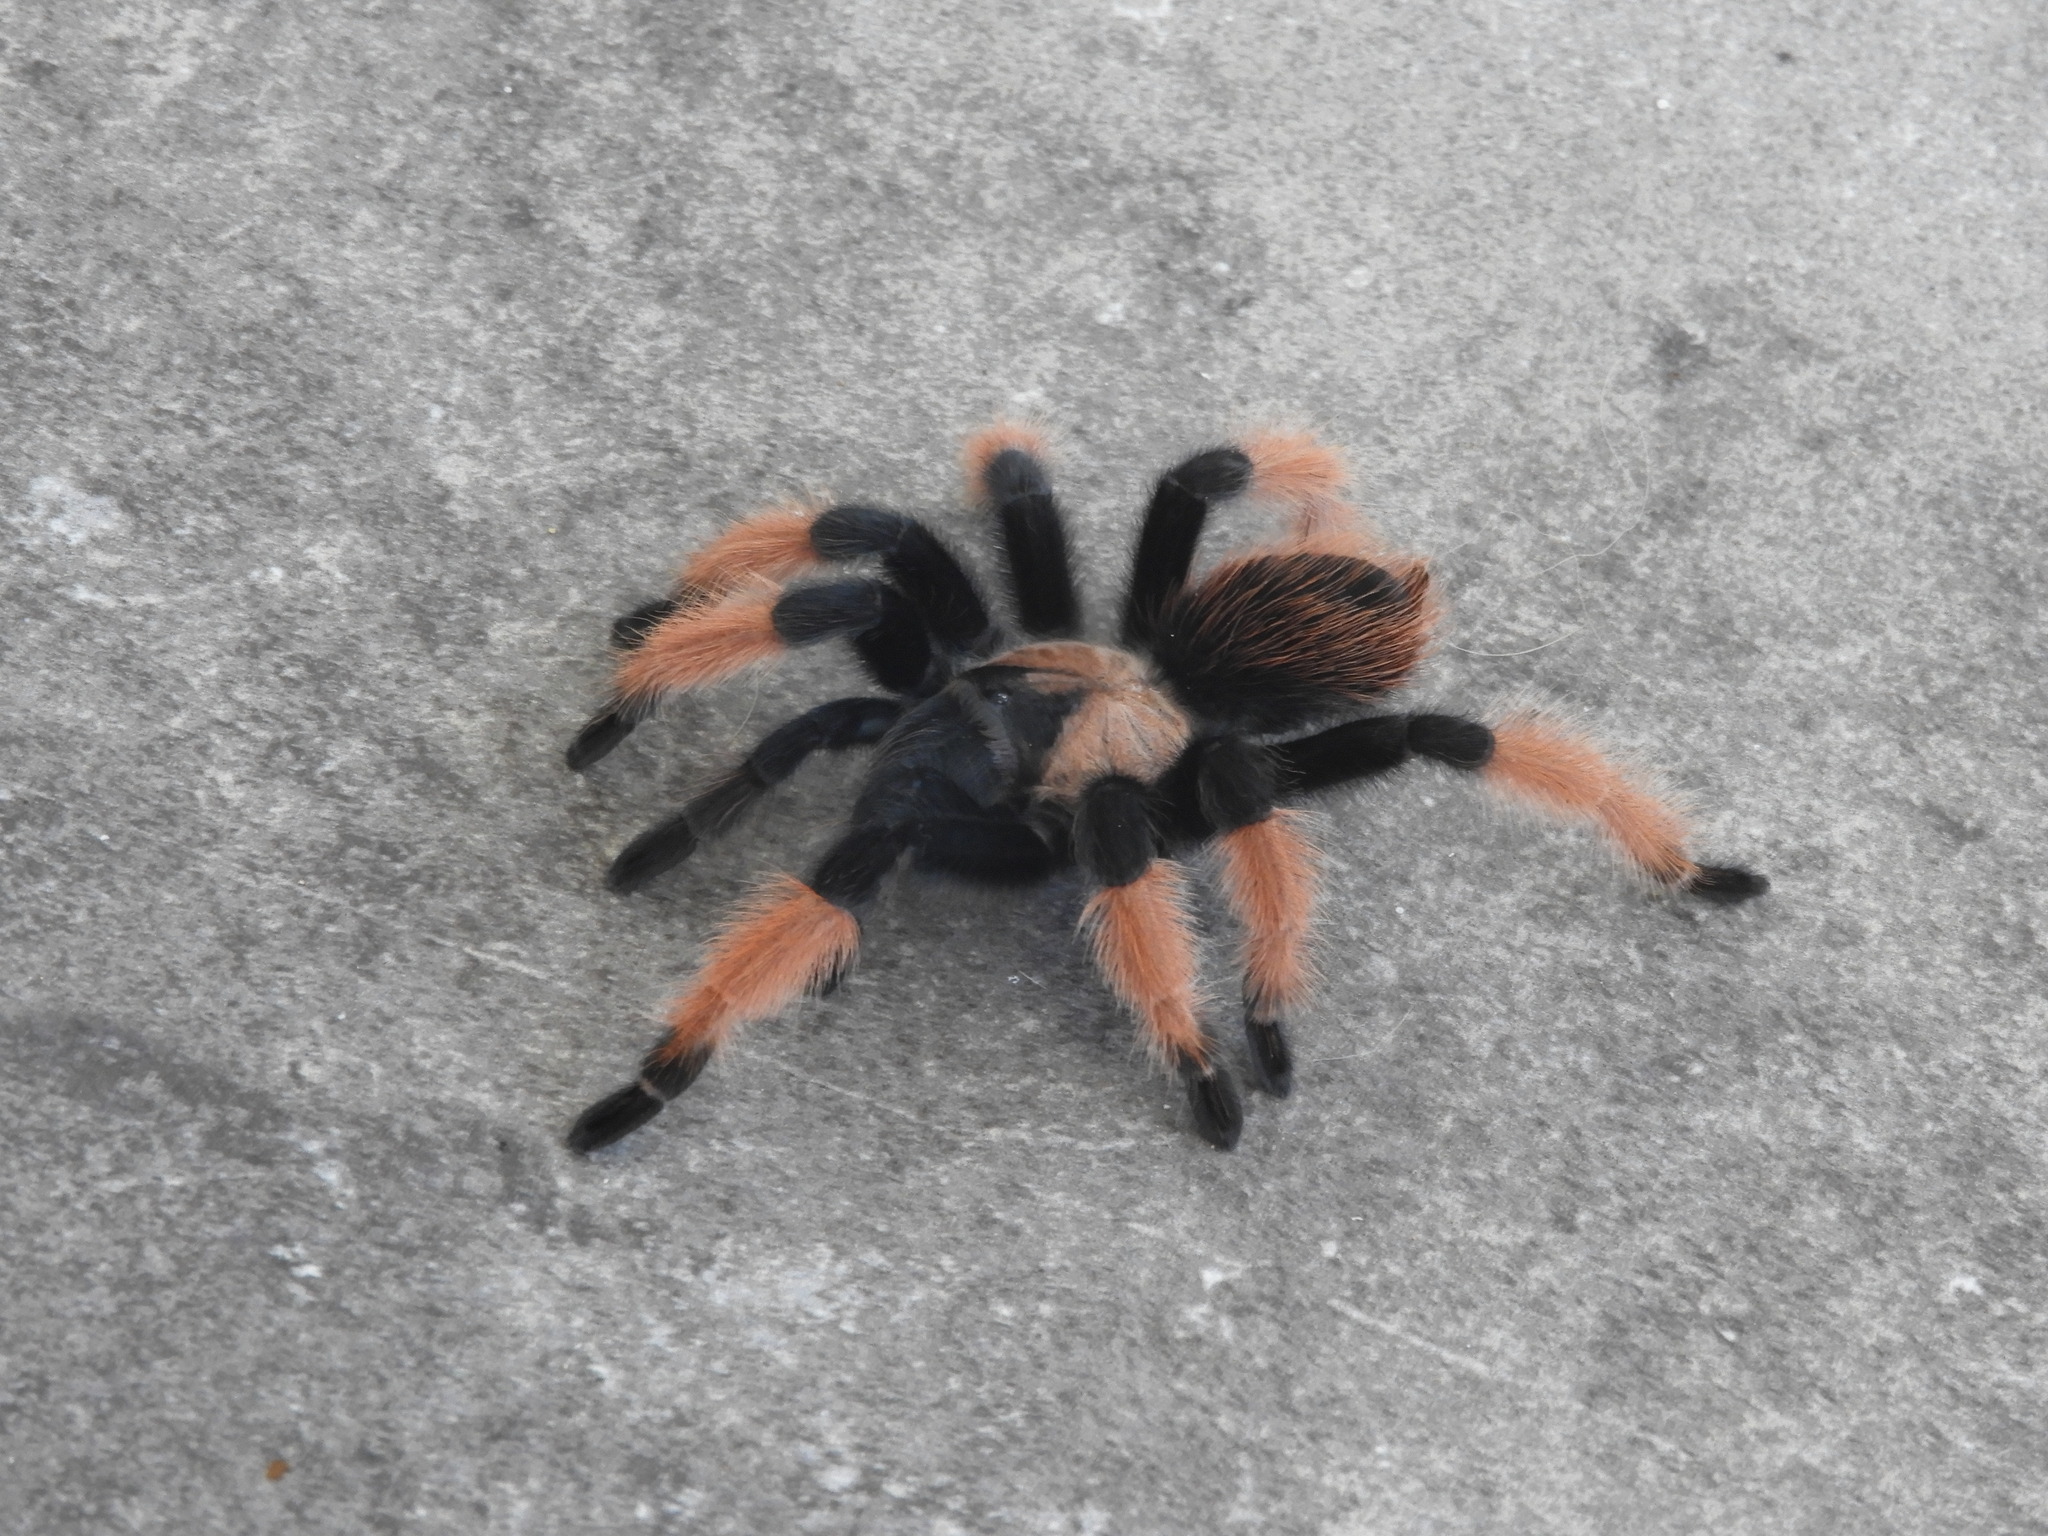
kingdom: Animalia
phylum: Arthropoda
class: Arachnida
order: Araneae
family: Theraphosidae
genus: Brachypelma
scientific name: Brachypelma emilia
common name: Mexican redleg
